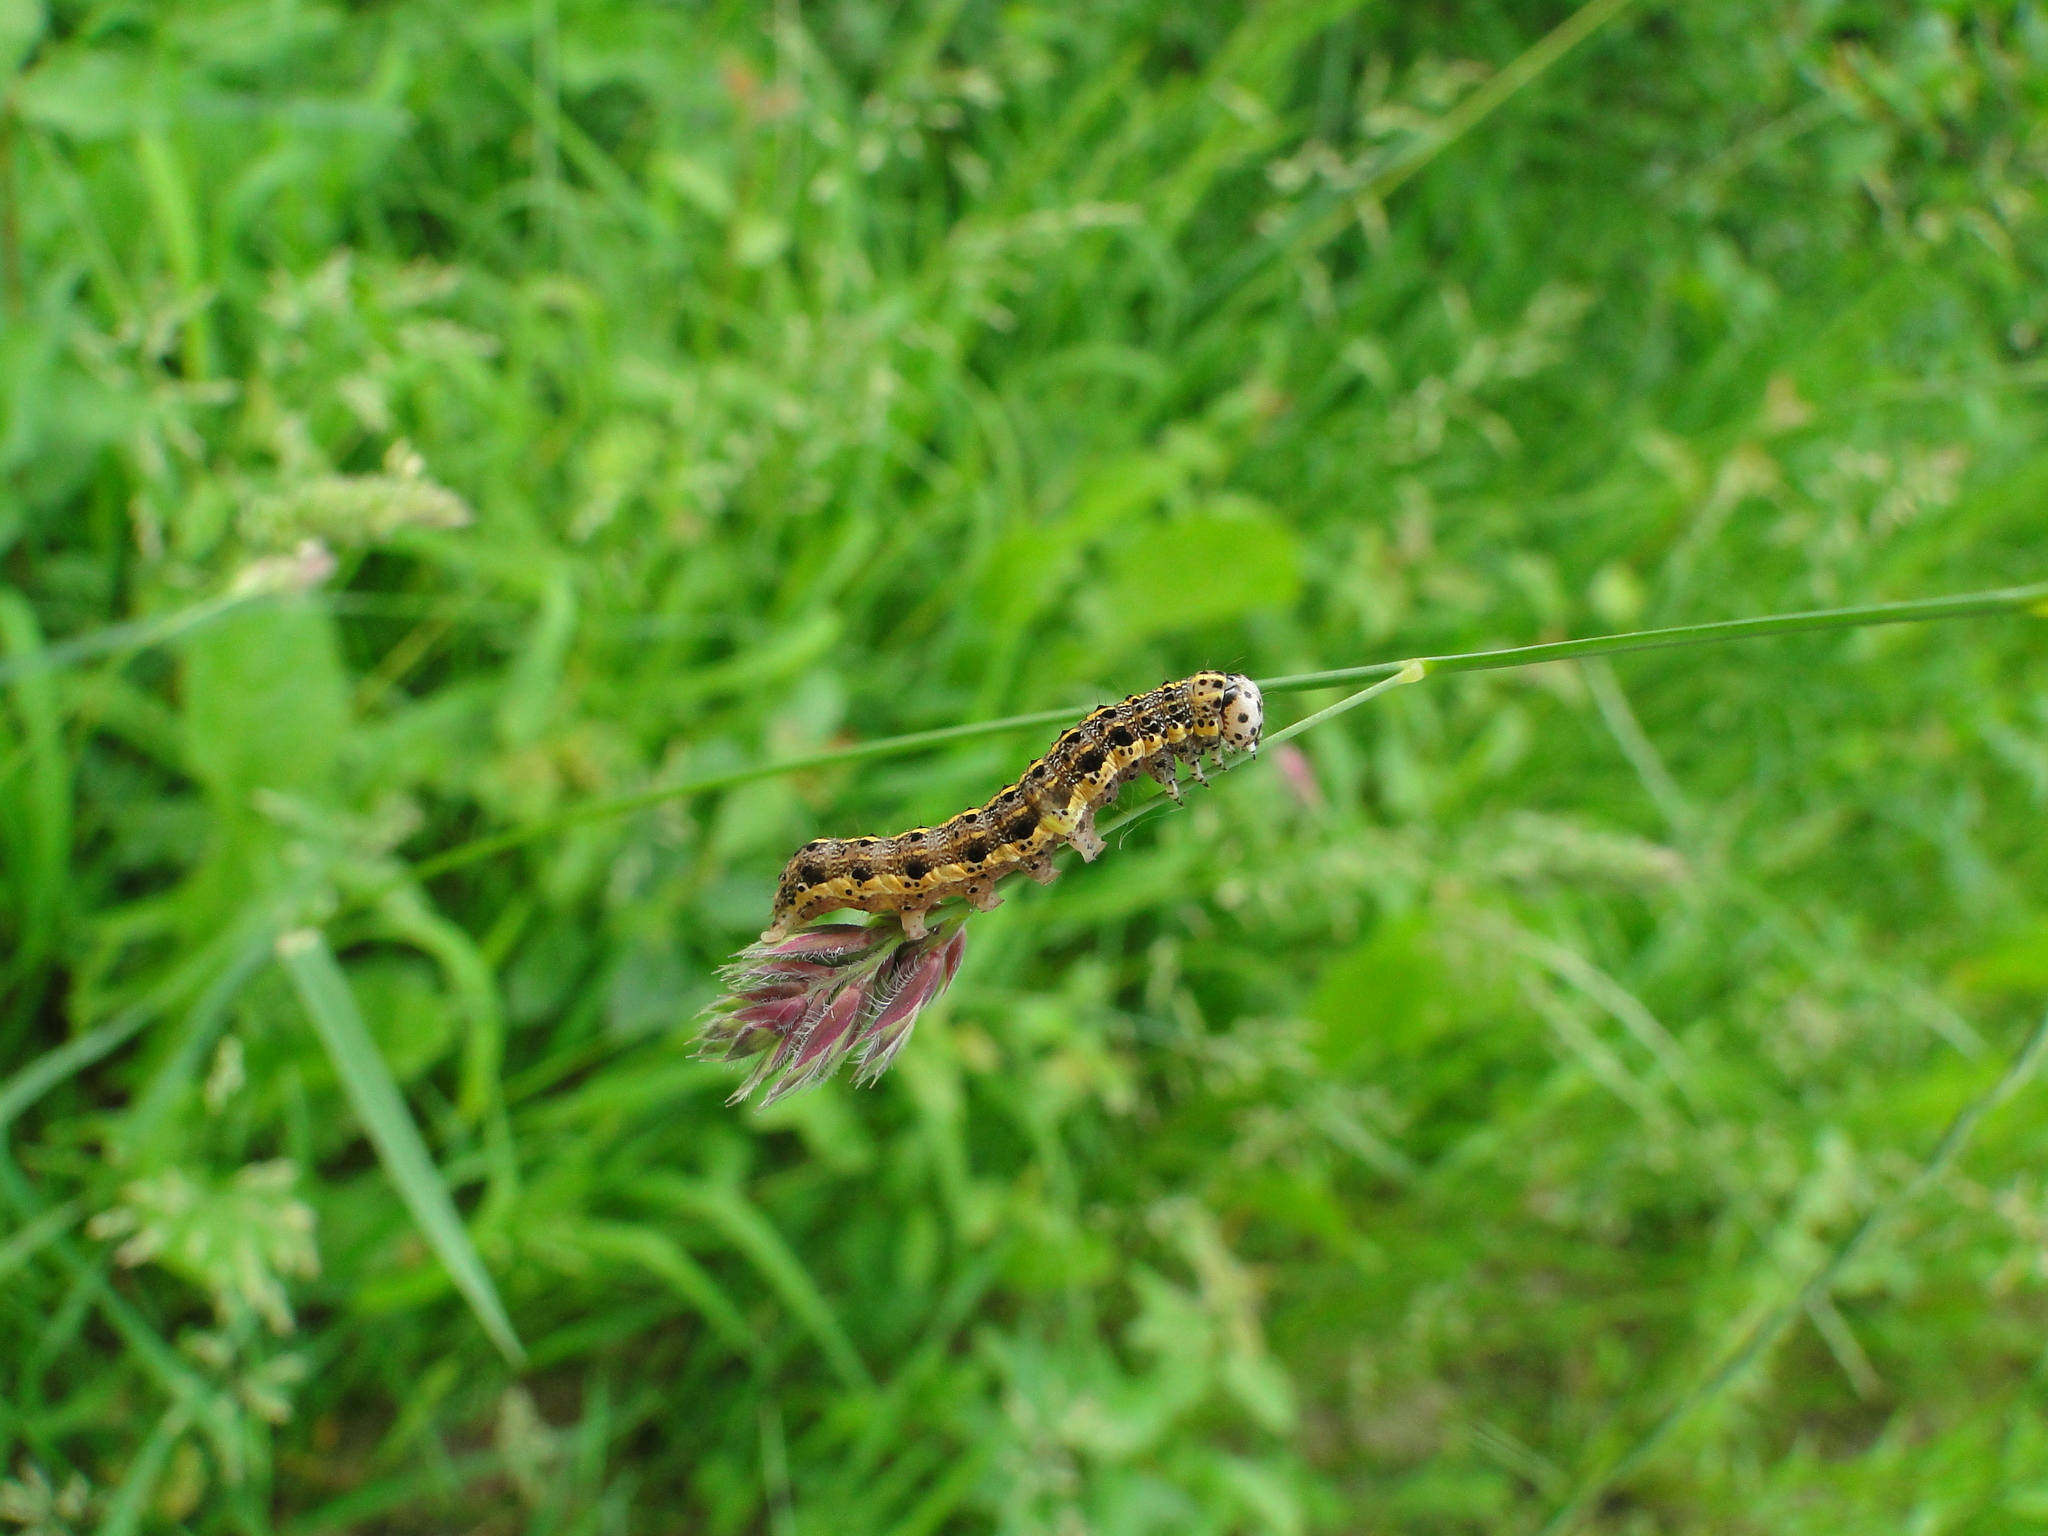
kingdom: Animalia
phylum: Arthropoda
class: Insecta
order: Lepidoptera
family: Noctuidae
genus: Orthosia
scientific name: Orthosia miniosa
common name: Blossom underwing
